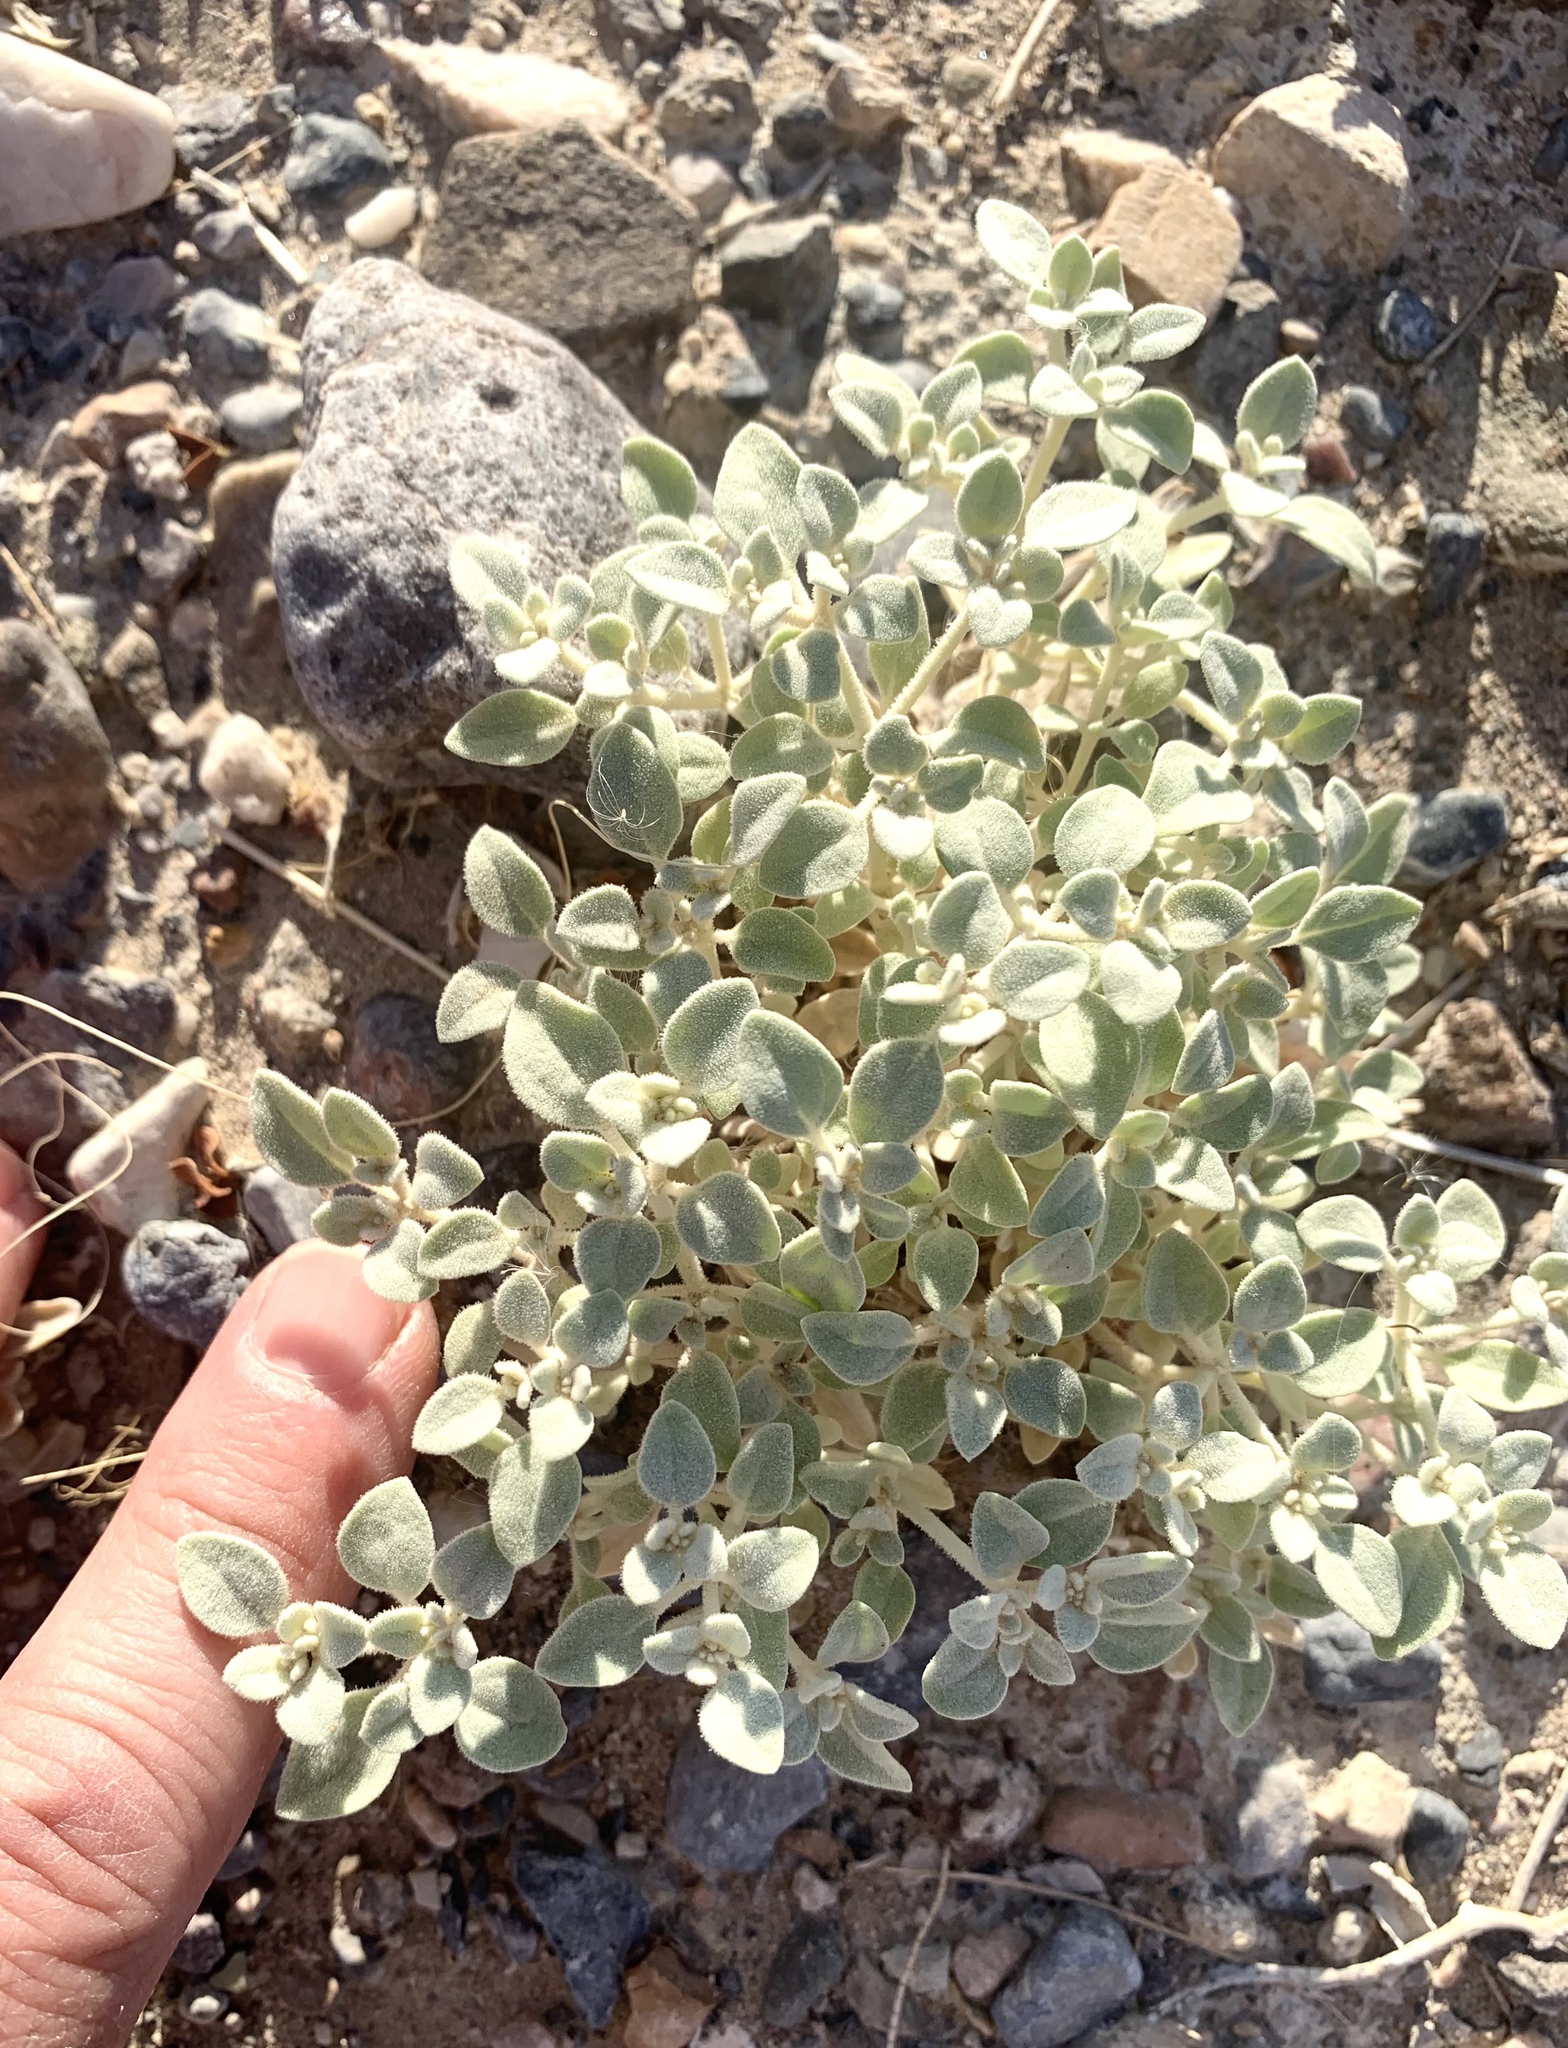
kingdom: Plantae
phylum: Tracheophyta
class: Magnoliopsida
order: Caryophyllales
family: Amaranthaceae
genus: Tidestromia
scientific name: Tidestromia suffruticosa
